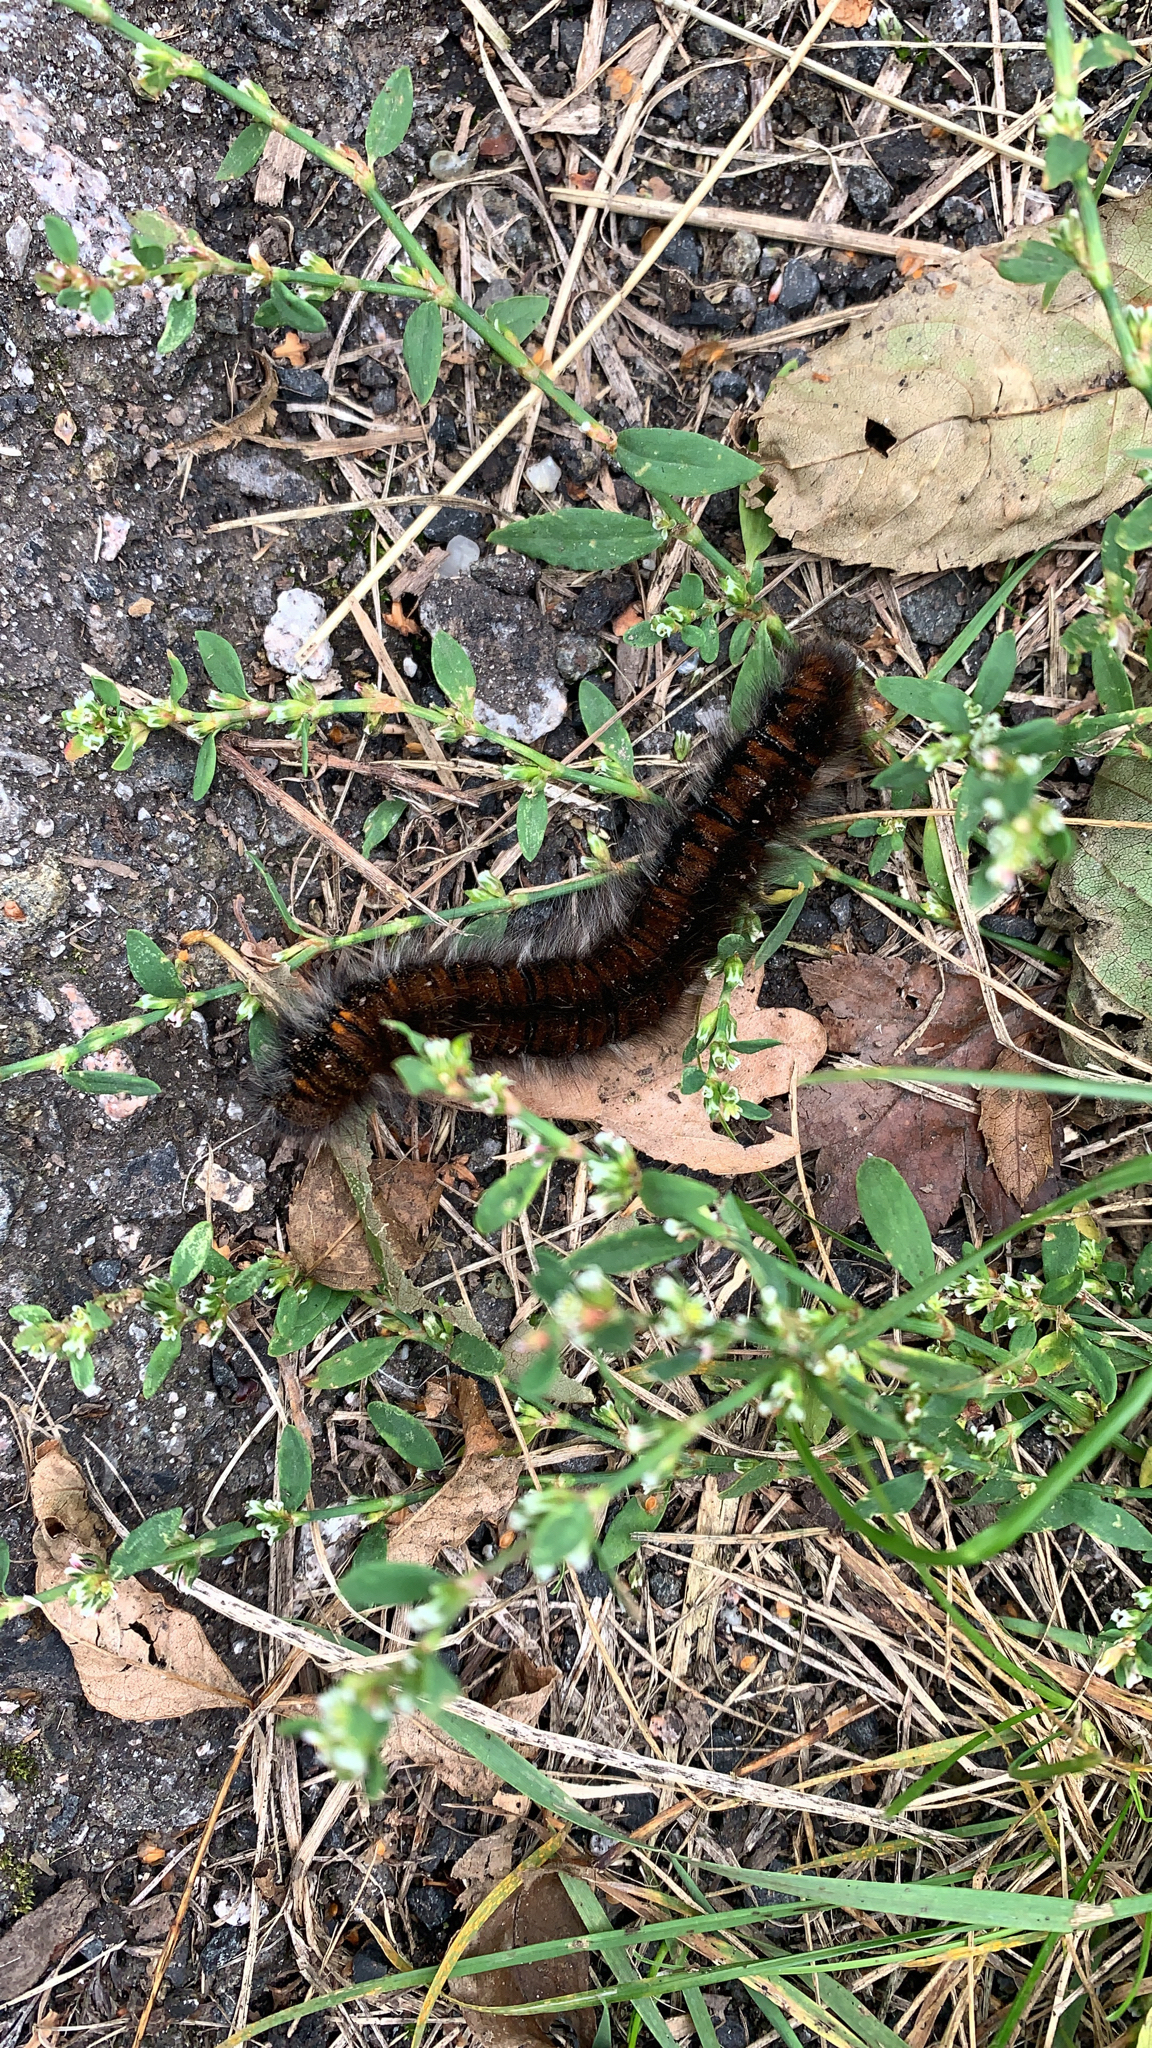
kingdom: Animalia
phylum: Arthropoda
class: Insecta
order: Lepidoptera
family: Lasiocampidae
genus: Macrothylacia
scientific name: Macrothylacia rubi
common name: Fox moth
